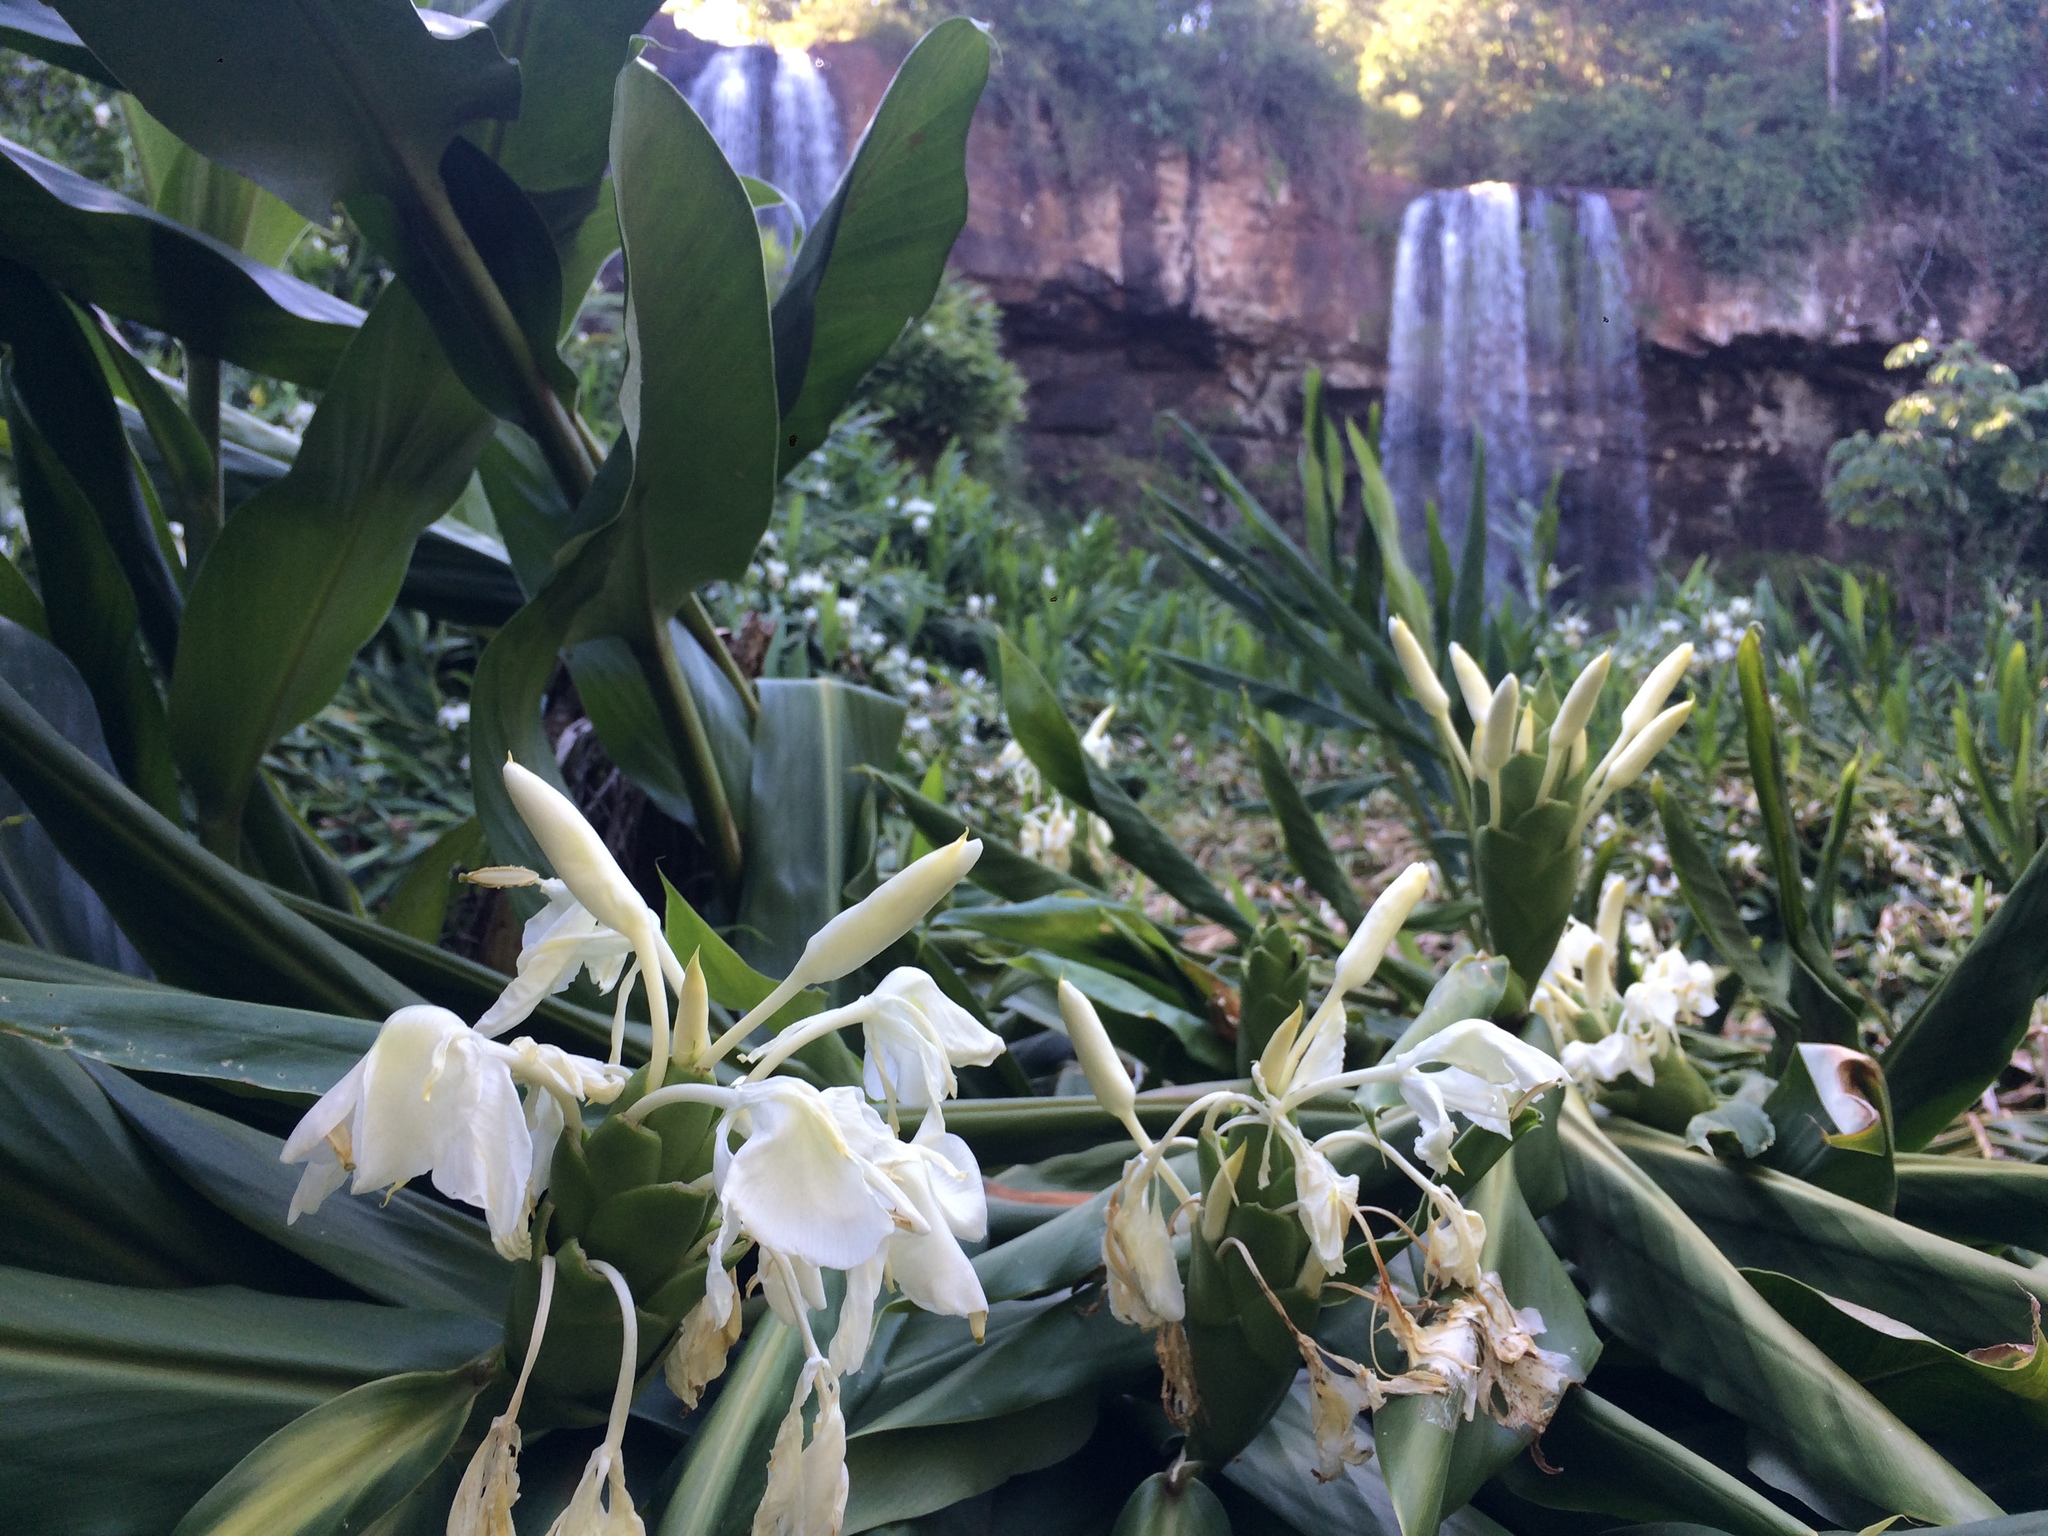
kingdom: Plantae
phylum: Tracheophyta
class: Liliopsida
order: Zingiberales
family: Zingiberaceae
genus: Hedychium
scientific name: Hedychium coronarium
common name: White garland-lily
